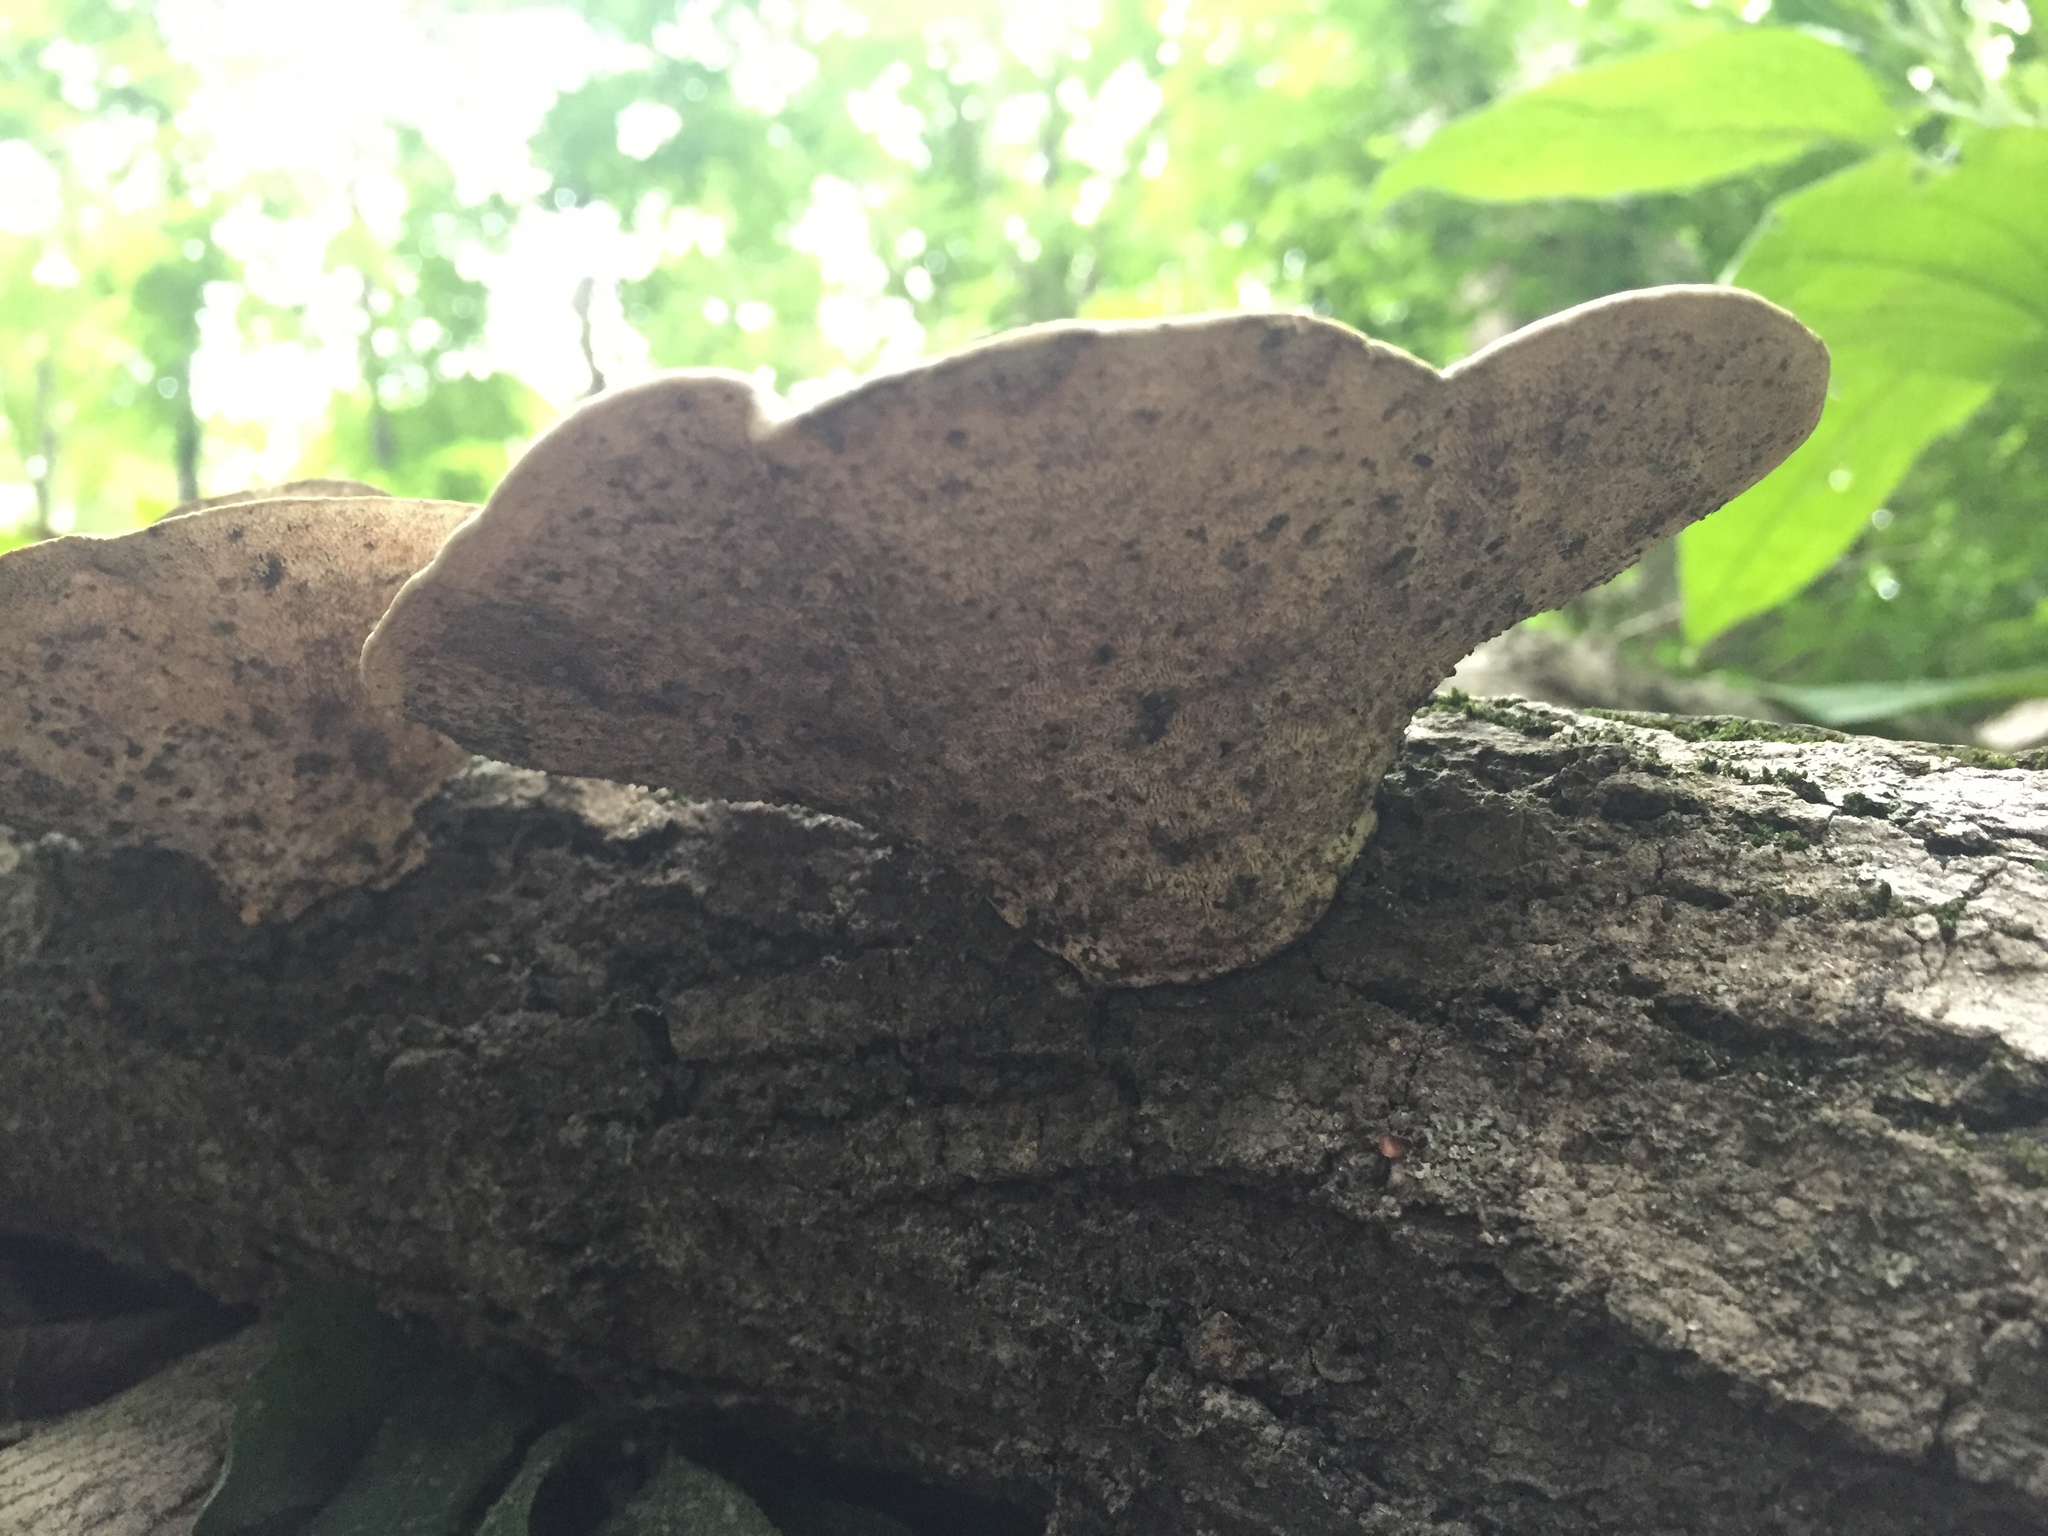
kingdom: Fungi
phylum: Basidiomycota
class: Agaricomycetes
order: Polyporales
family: Polyporaceae
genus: Trametes
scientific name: Trametes gibbosa
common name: Lumpy bracket
